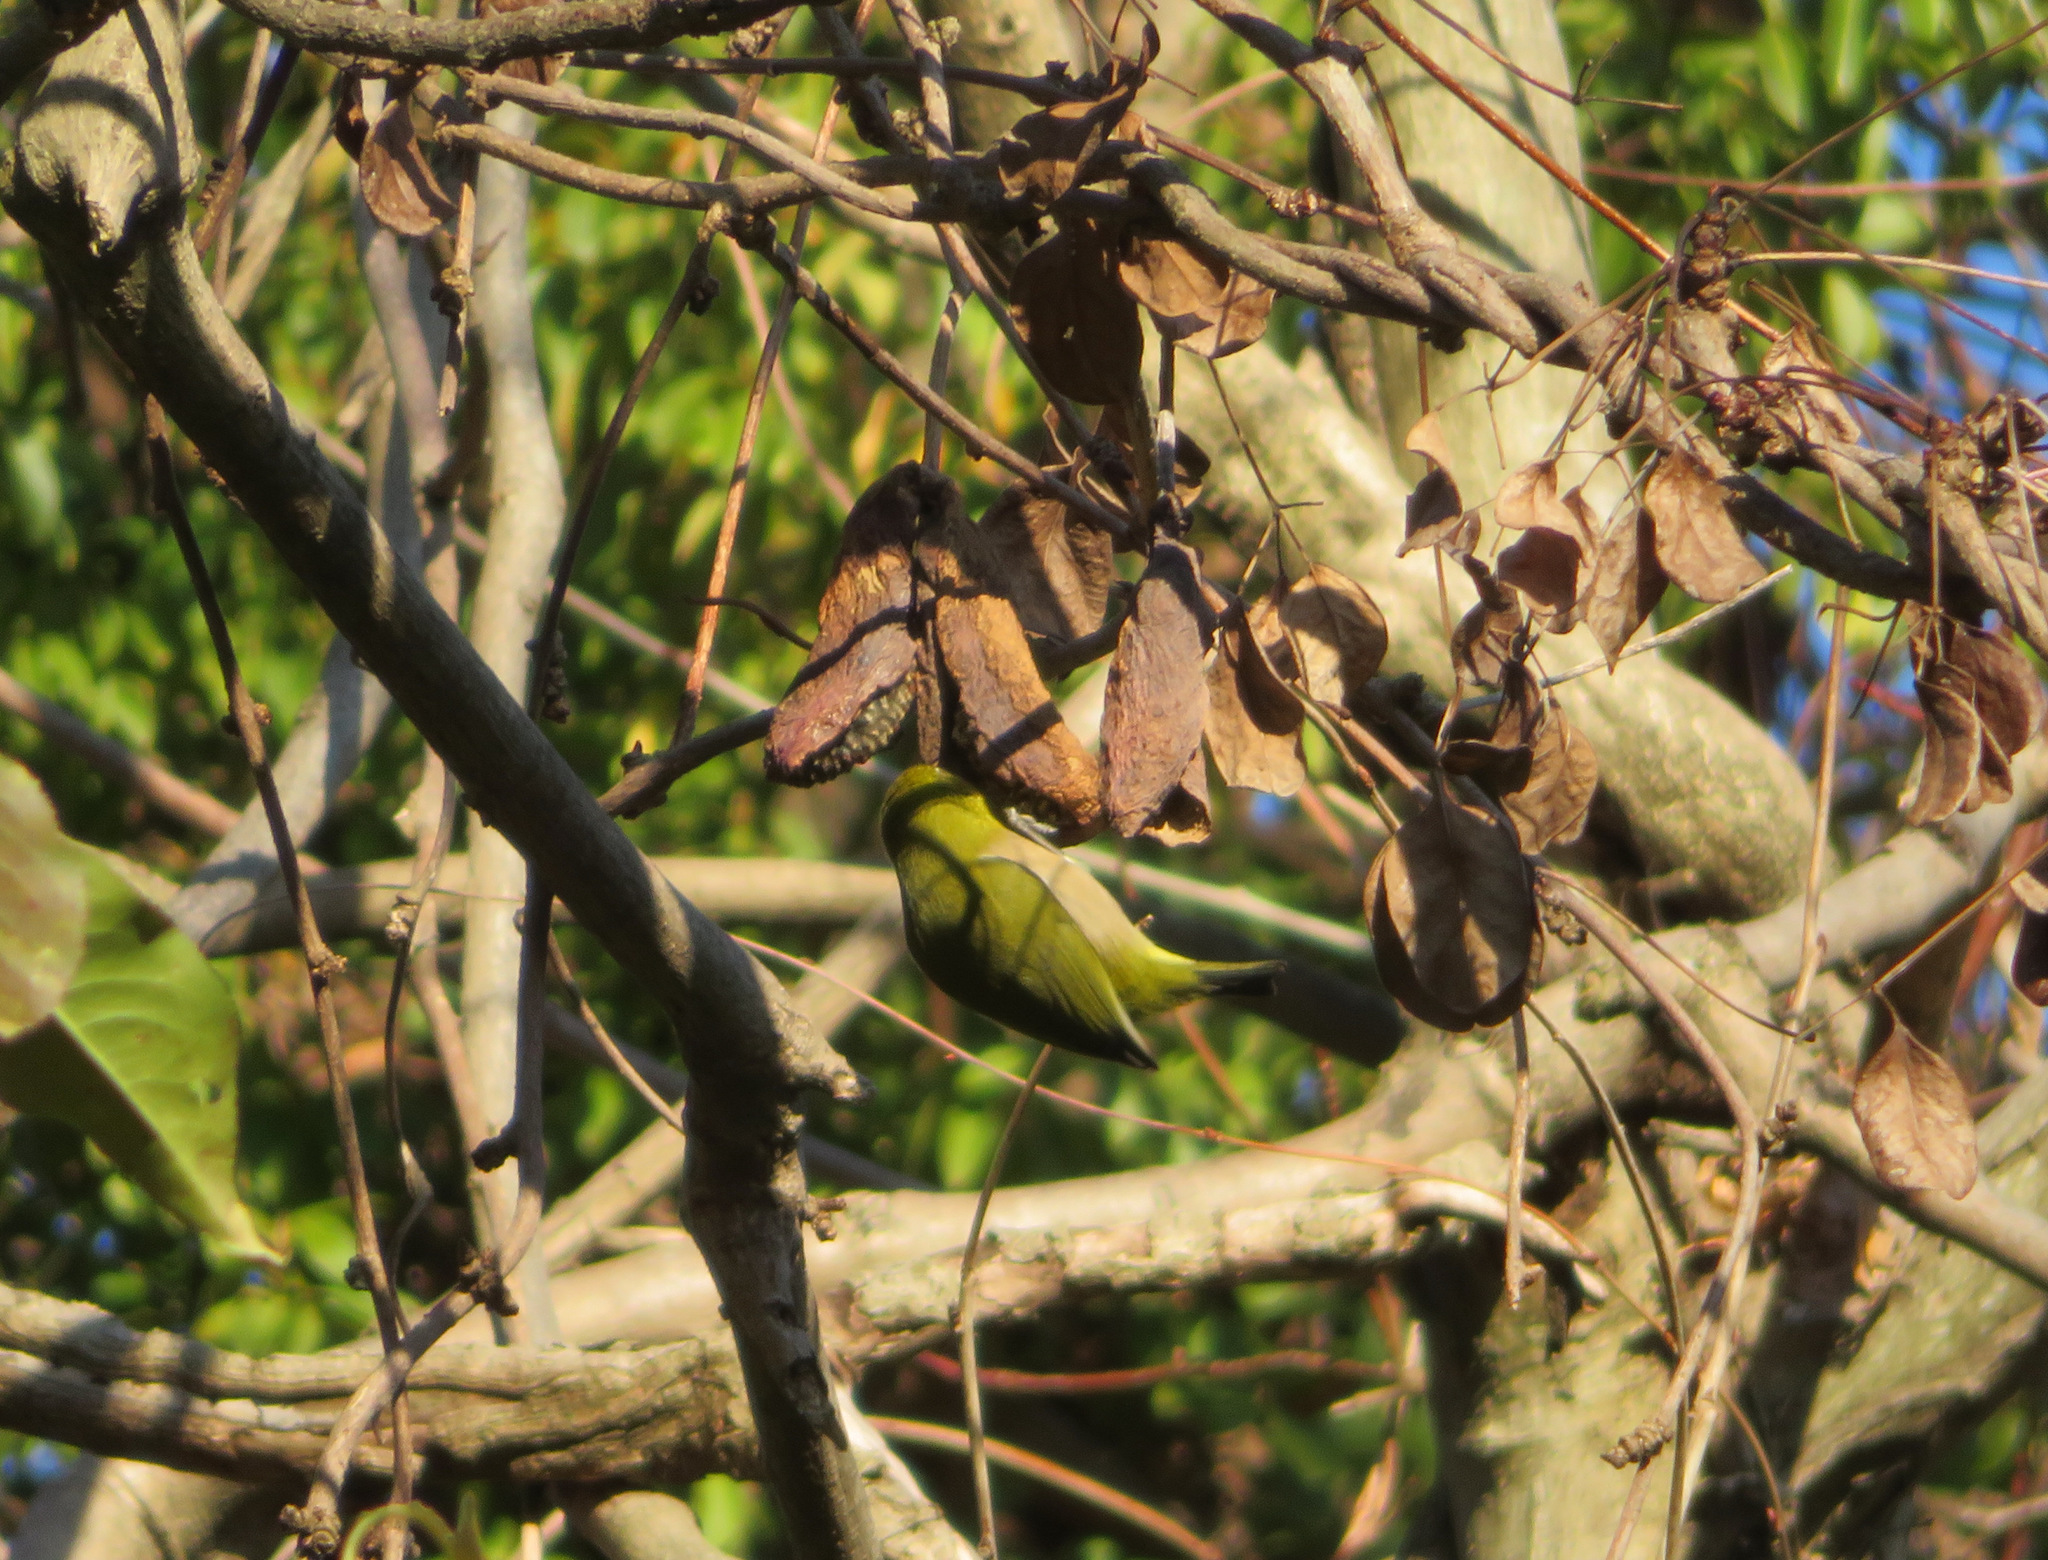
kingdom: Animalia
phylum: Chordata
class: Aves
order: Passeriformes
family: Zosteropidae
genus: Zosterops
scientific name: Zosterops japonicus
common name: Japanese white-eye
